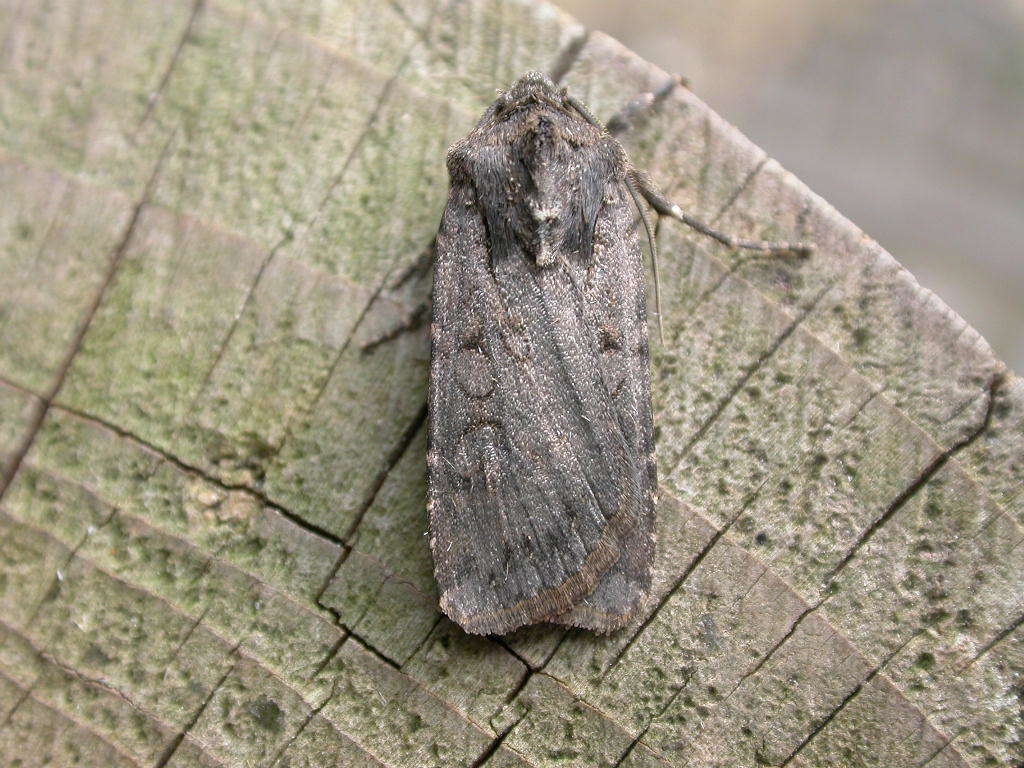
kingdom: Animalia
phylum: Arthropoda
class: Insecta
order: Lepidoptera
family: Noctuidae
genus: Euxoa
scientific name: Euxoa nigricans
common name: Garden dart
